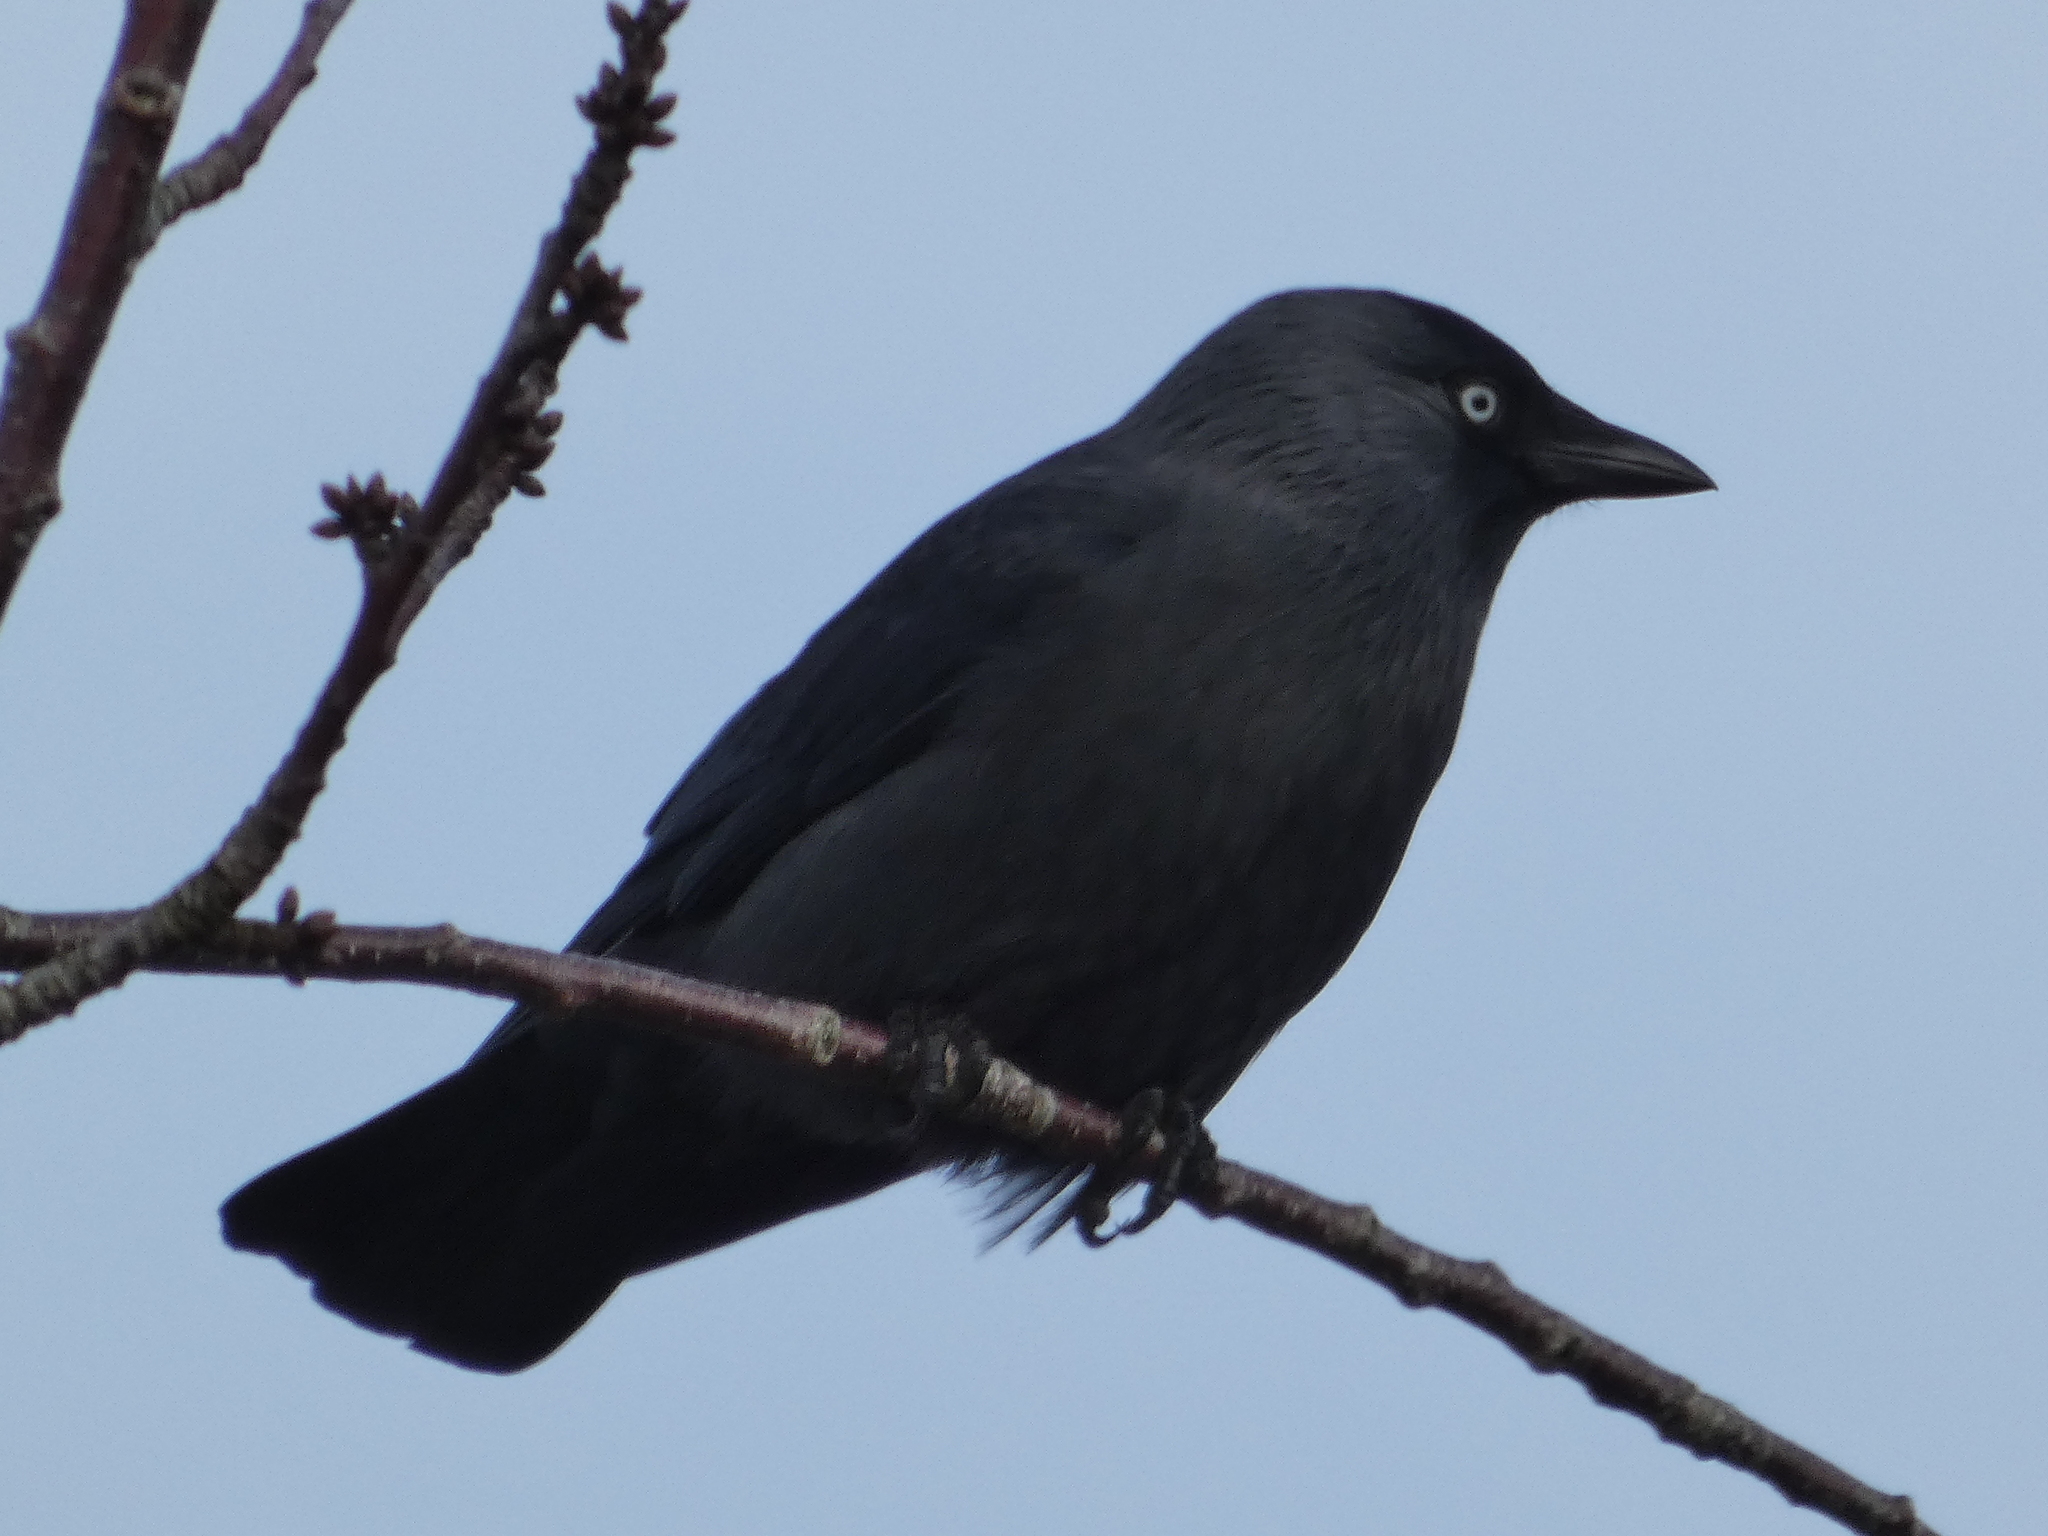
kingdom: Animalia
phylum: Chordata
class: Aves
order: Passeriformes
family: Corvidae
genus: Coloeus
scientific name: Coloeus monedula
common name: Western jackdaw
